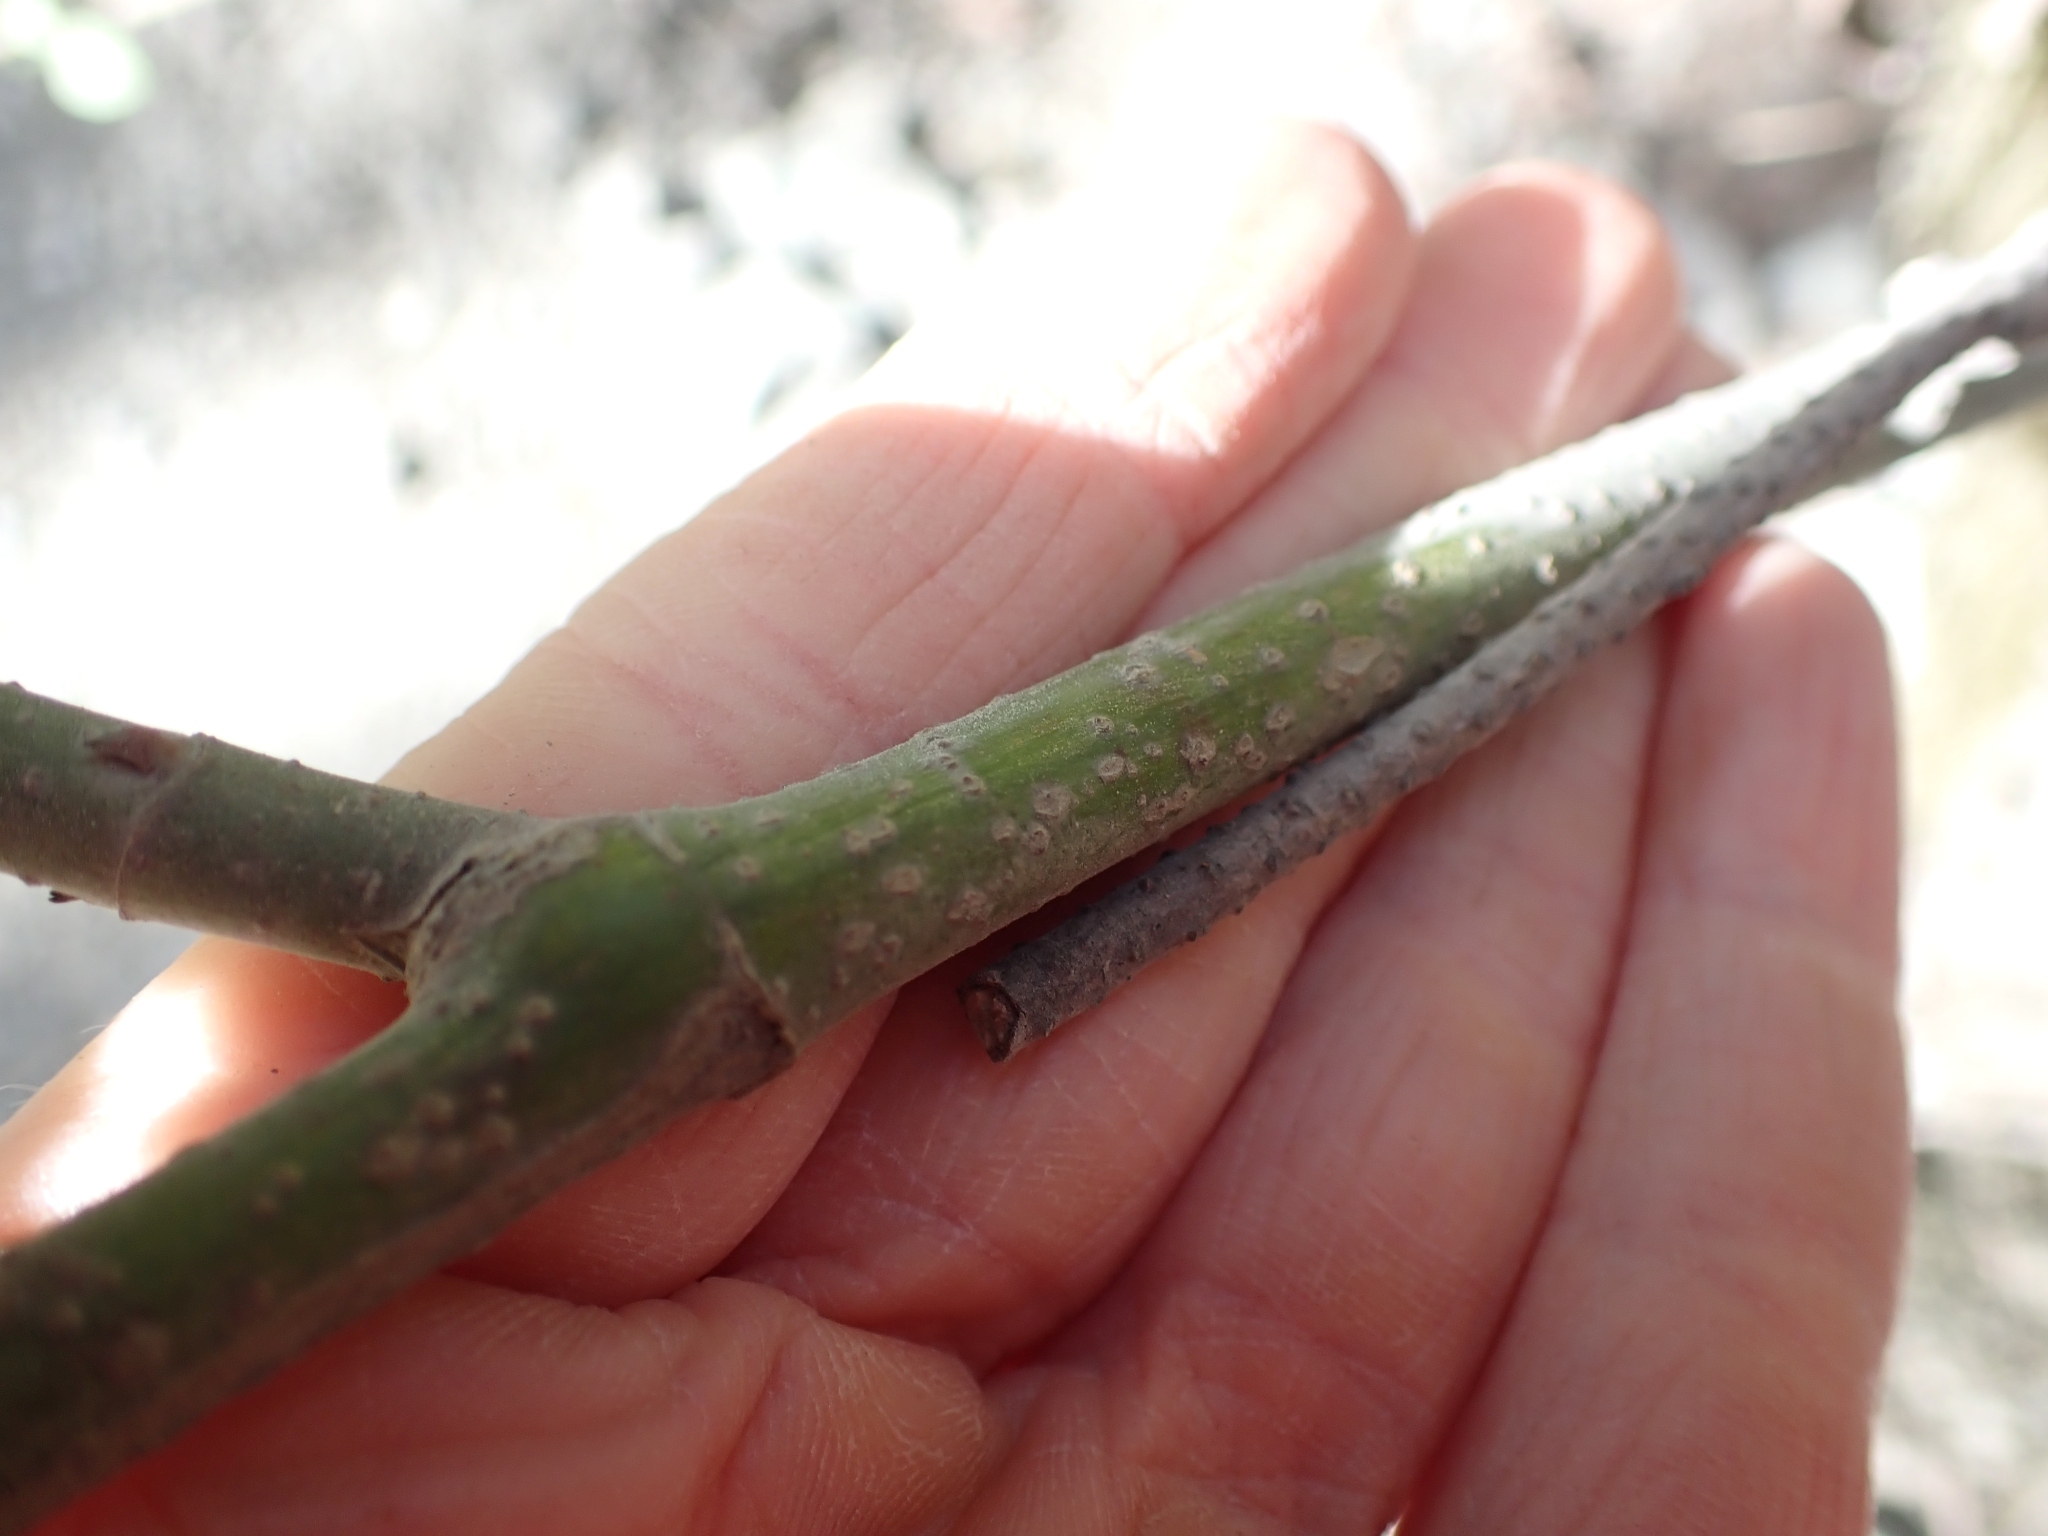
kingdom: Plantae
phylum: Tracheophyta
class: Magnoliopsida
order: Cornales
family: Cornaceae
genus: Cornus
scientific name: Cornus sericea
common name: Red-osier dogwood
